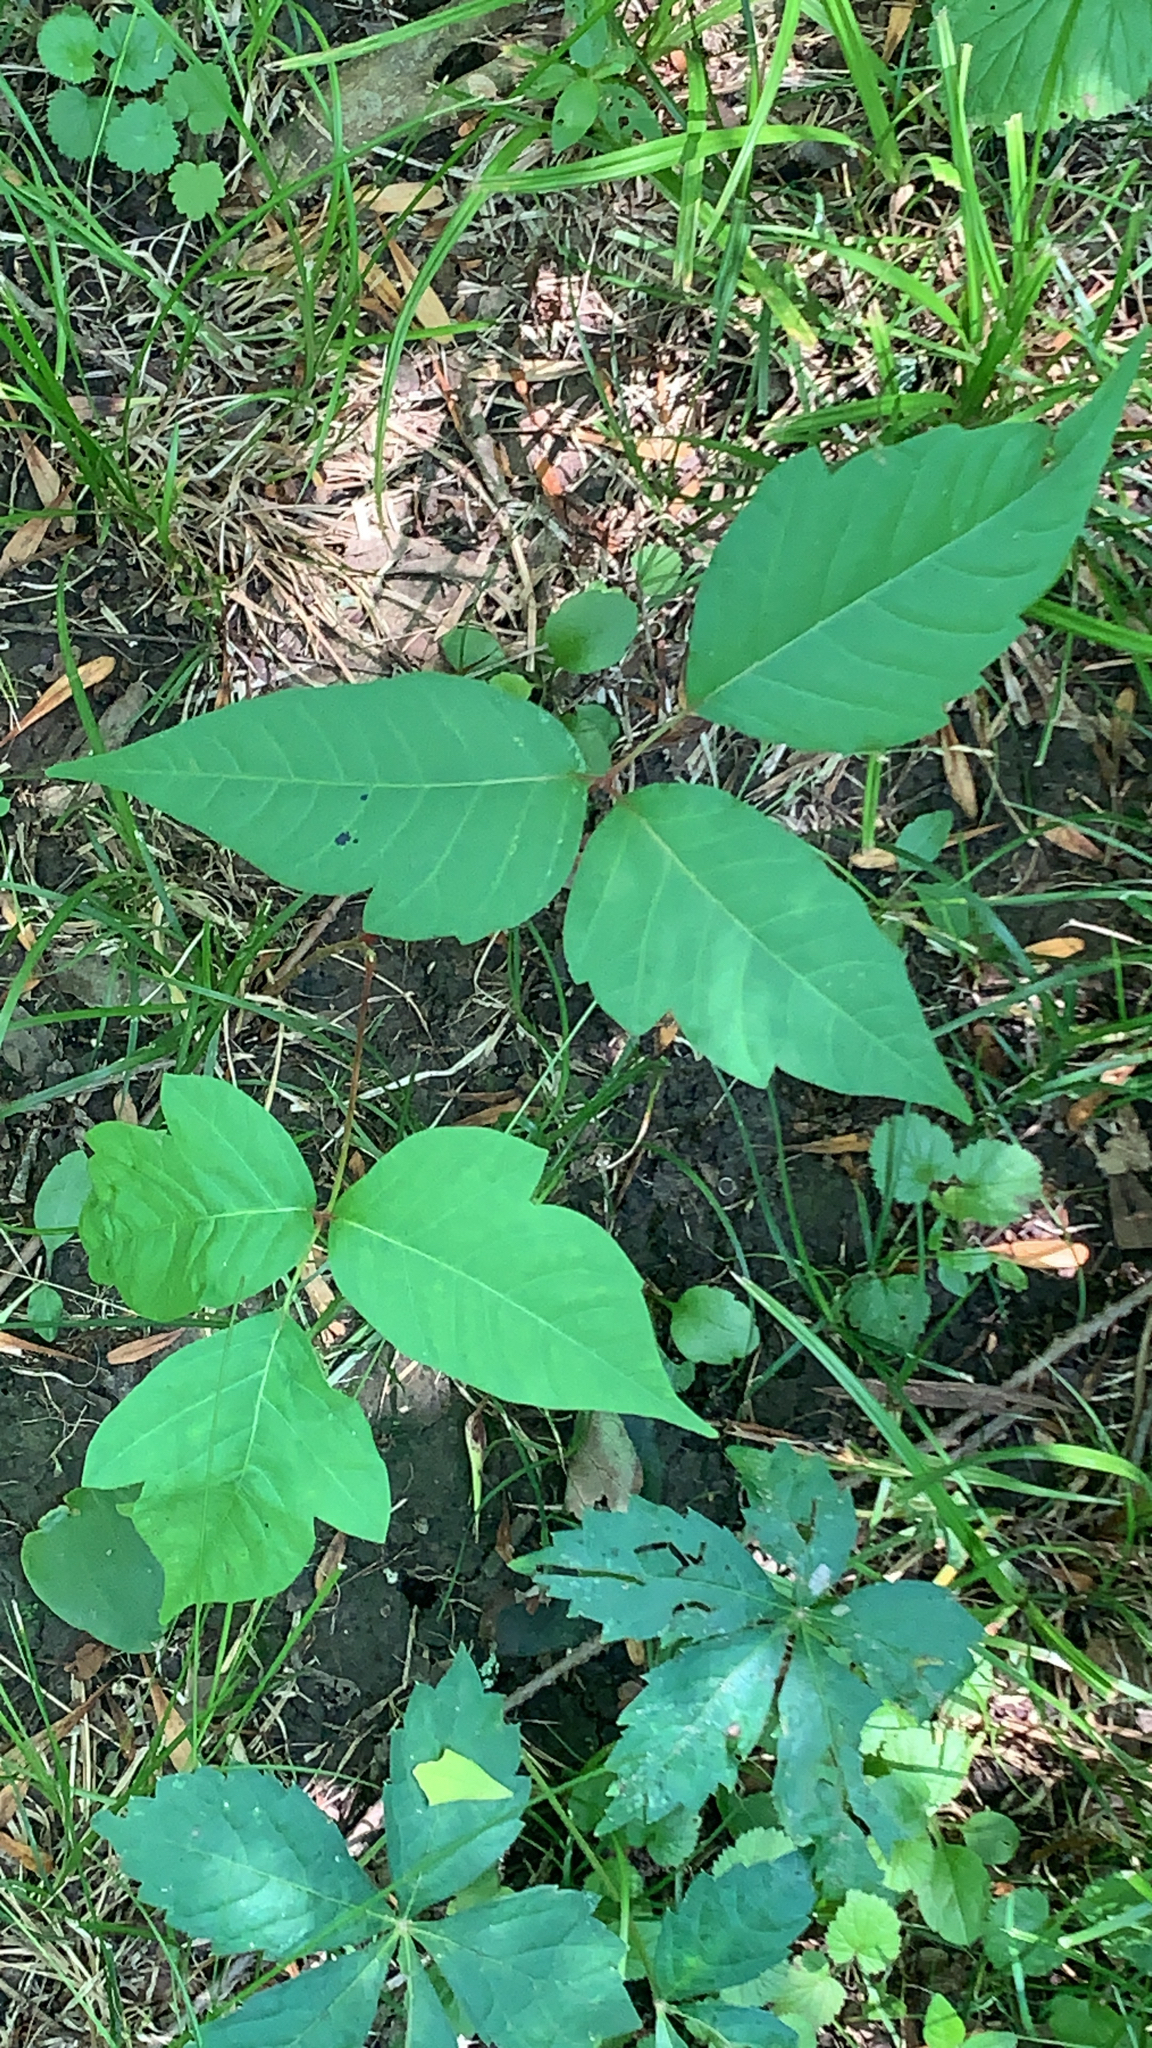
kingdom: Plantae
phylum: Tracheophyta
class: Magnoliopsida
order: Sapindales
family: Anacardiaceae
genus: Toxicodendron
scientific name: Toxicodendron radicans
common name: Poison ivy
